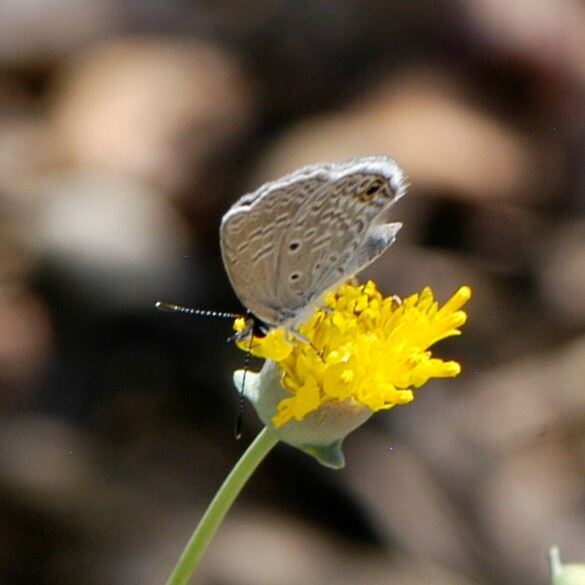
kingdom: Animalia
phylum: Arthropoda
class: Insecta
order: Lepidoptera
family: Lycaenidae
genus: Hemiargus
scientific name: Hemiargus ceraunus
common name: Ceraunus blue
